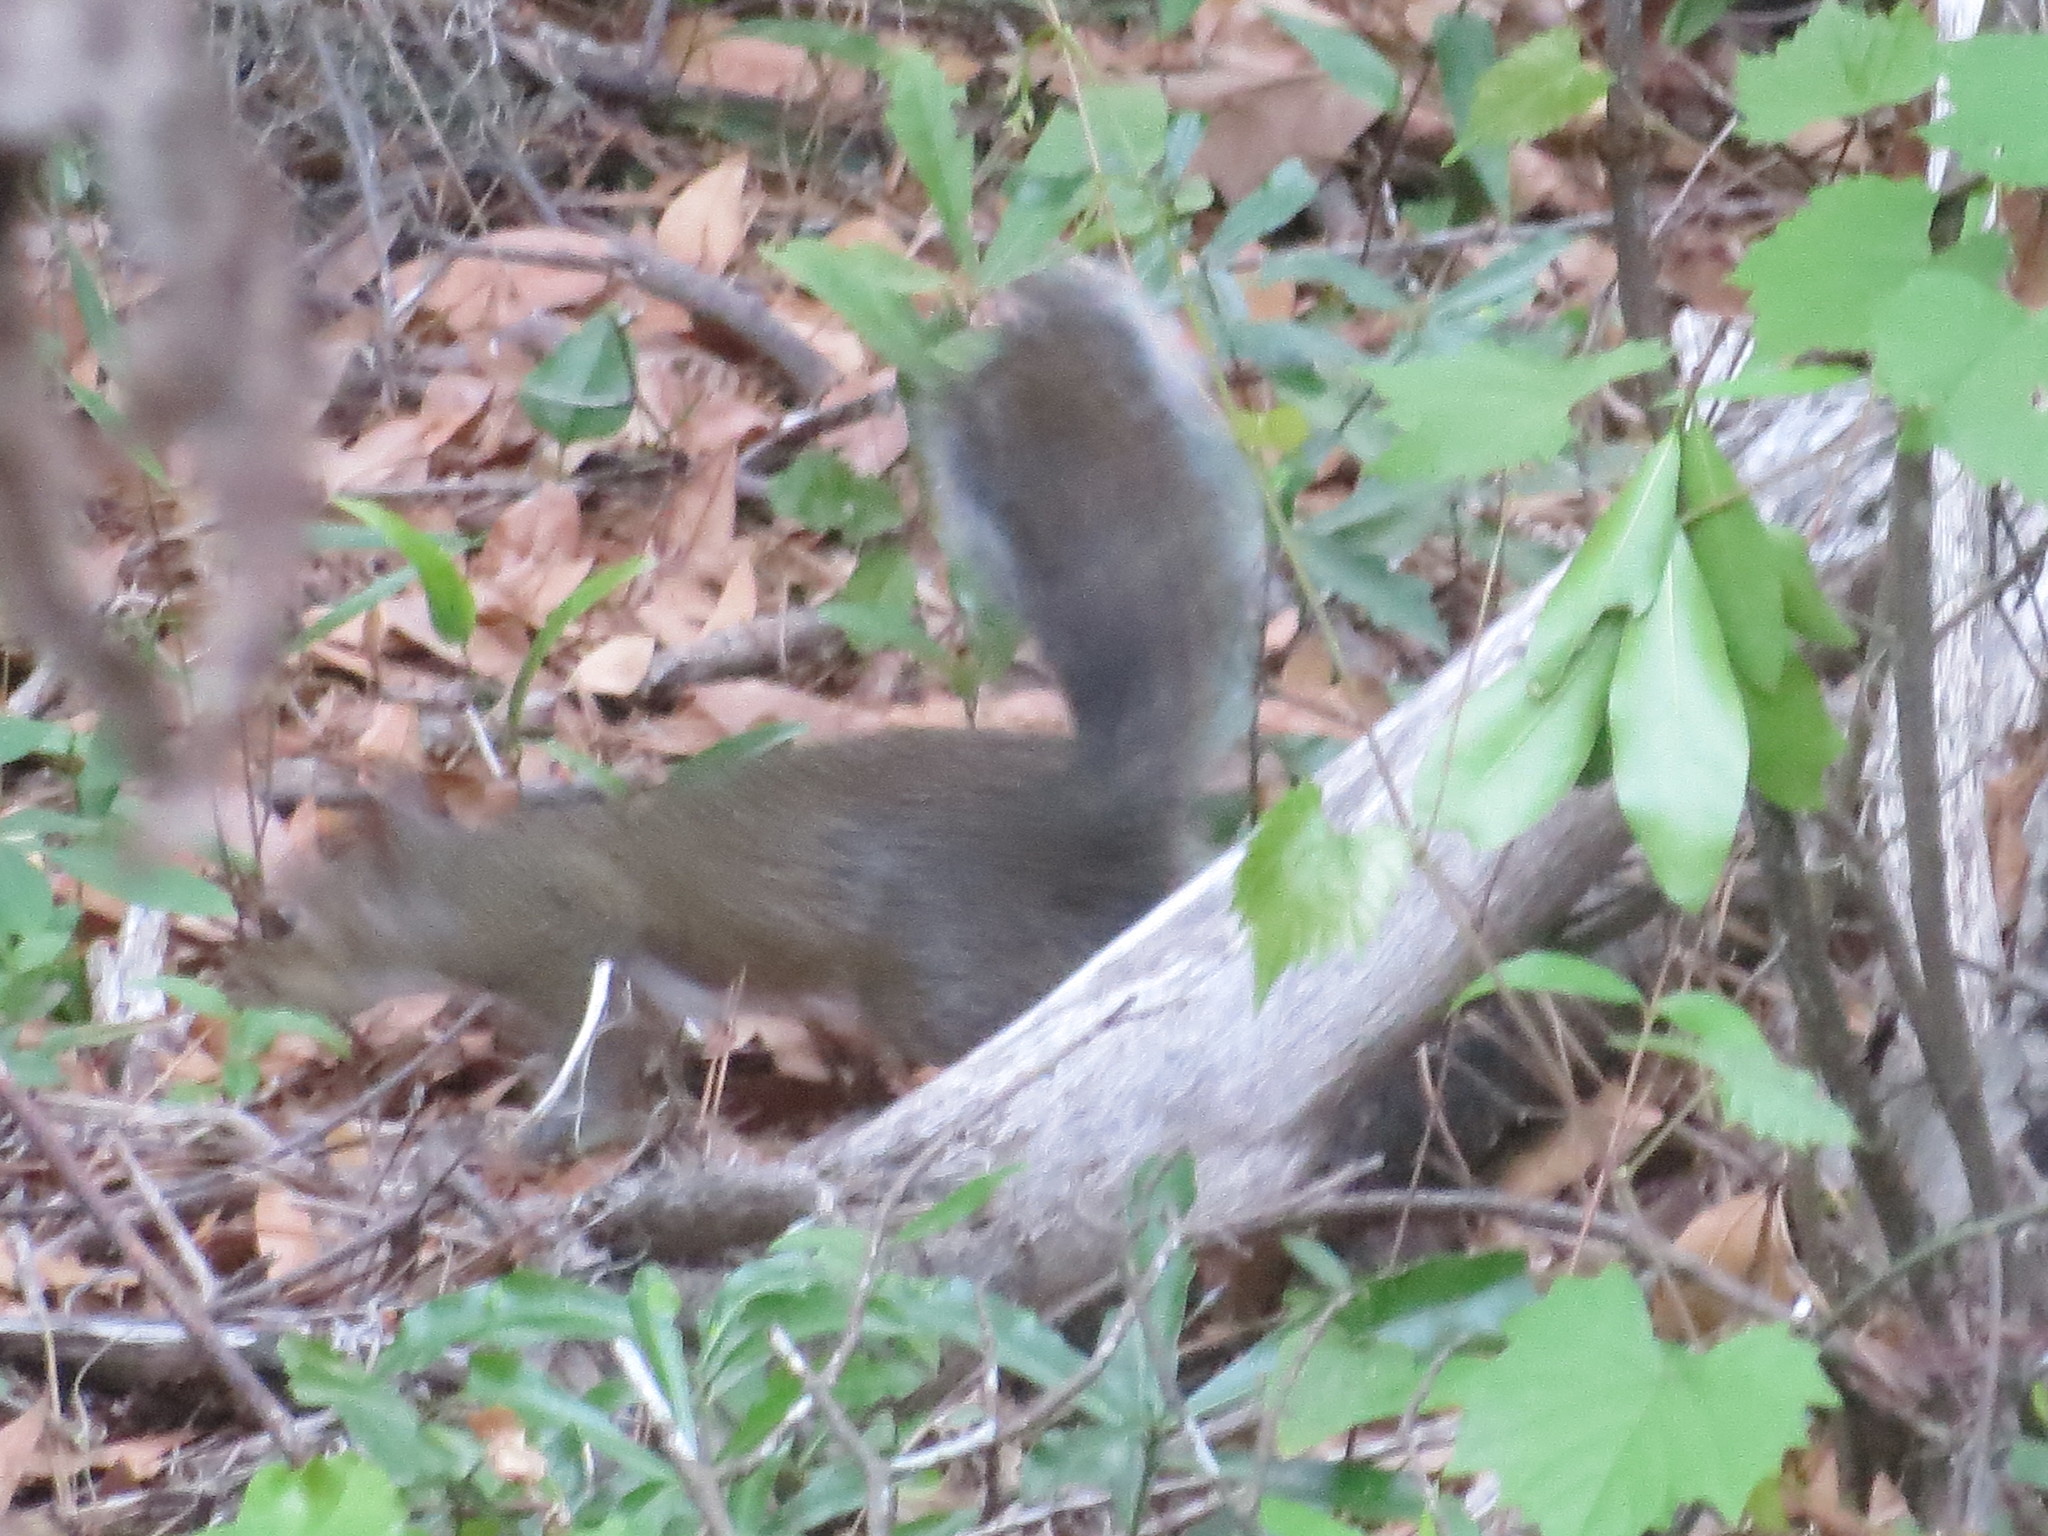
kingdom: Animalia
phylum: Chordata
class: Mammalia
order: Rodentia
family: Sciuridae
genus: Sciurus
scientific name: Sciurus carolinensis
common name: Eastern gray squirrel
